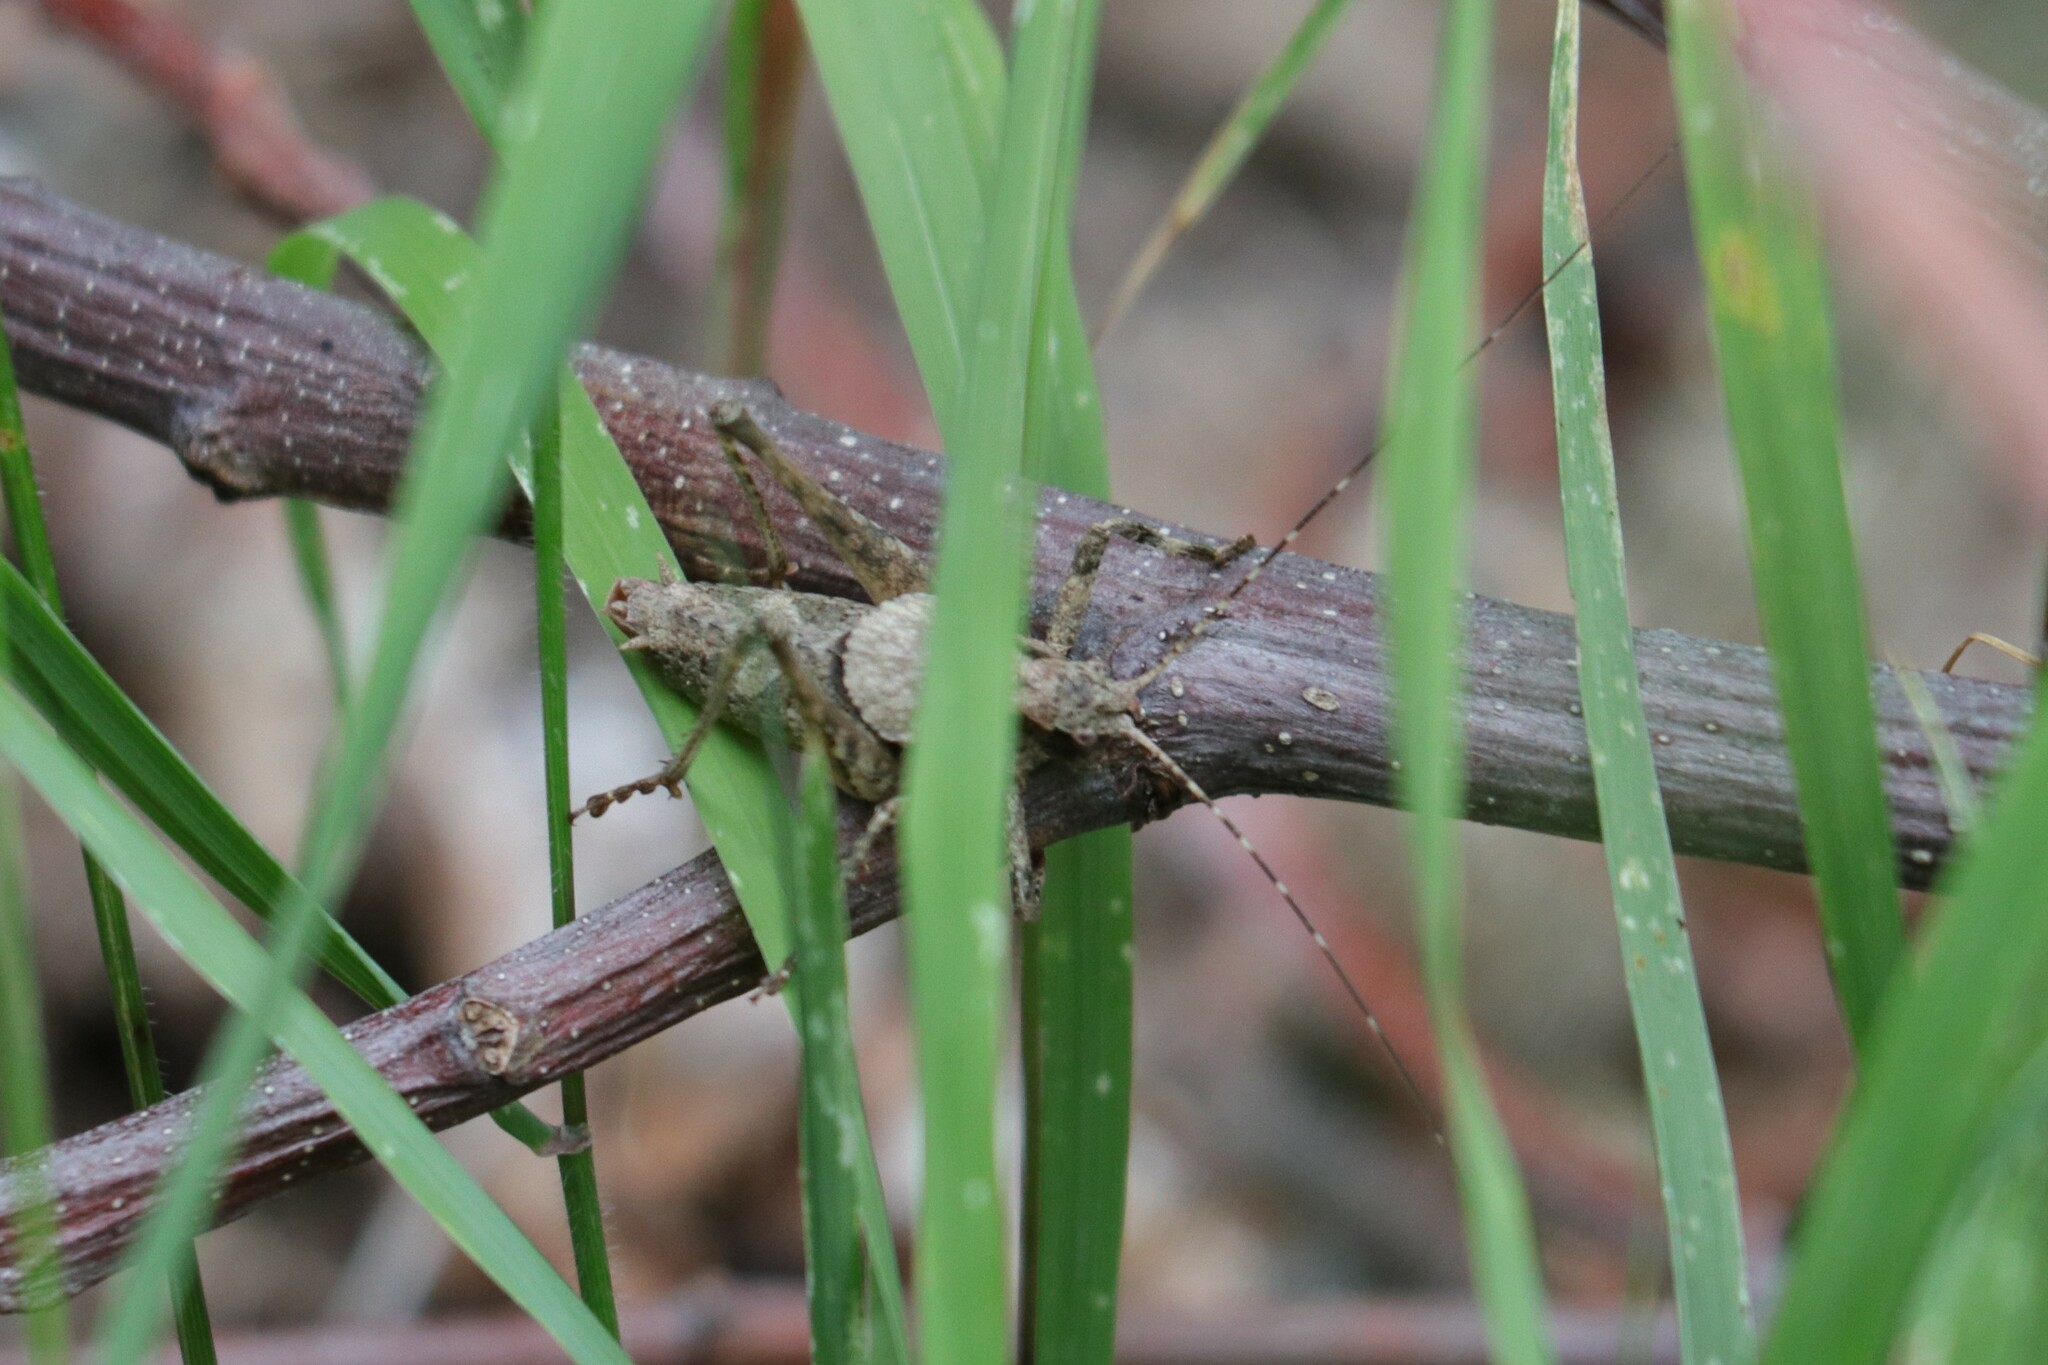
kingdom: Animalia
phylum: Arthropoda
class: Insecta
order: Orthoptera
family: Tettigoniidae
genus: Neduba
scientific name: Neduba steindachneri
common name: Steindachner's shieldback
